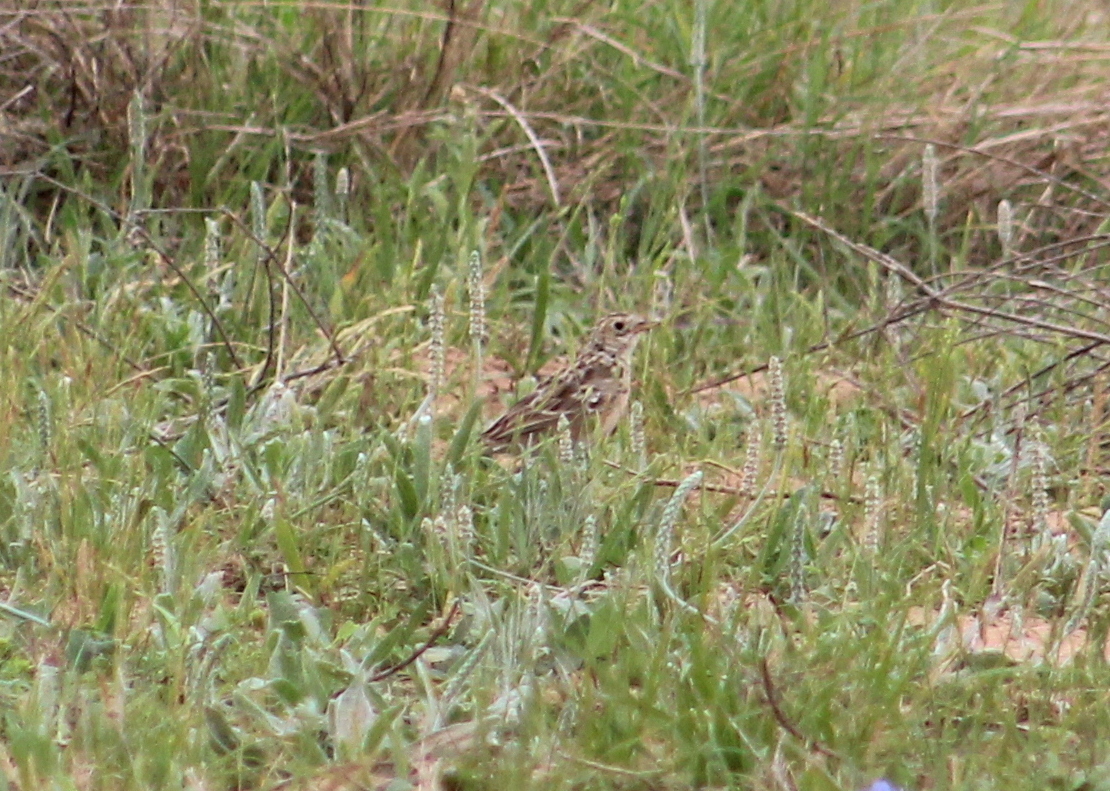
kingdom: Animalia
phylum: Chordata
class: Aves
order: Passeriformes
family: Motacillidae
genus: Anthus
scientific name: Anthus spragueii
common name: Sprague's pipit
